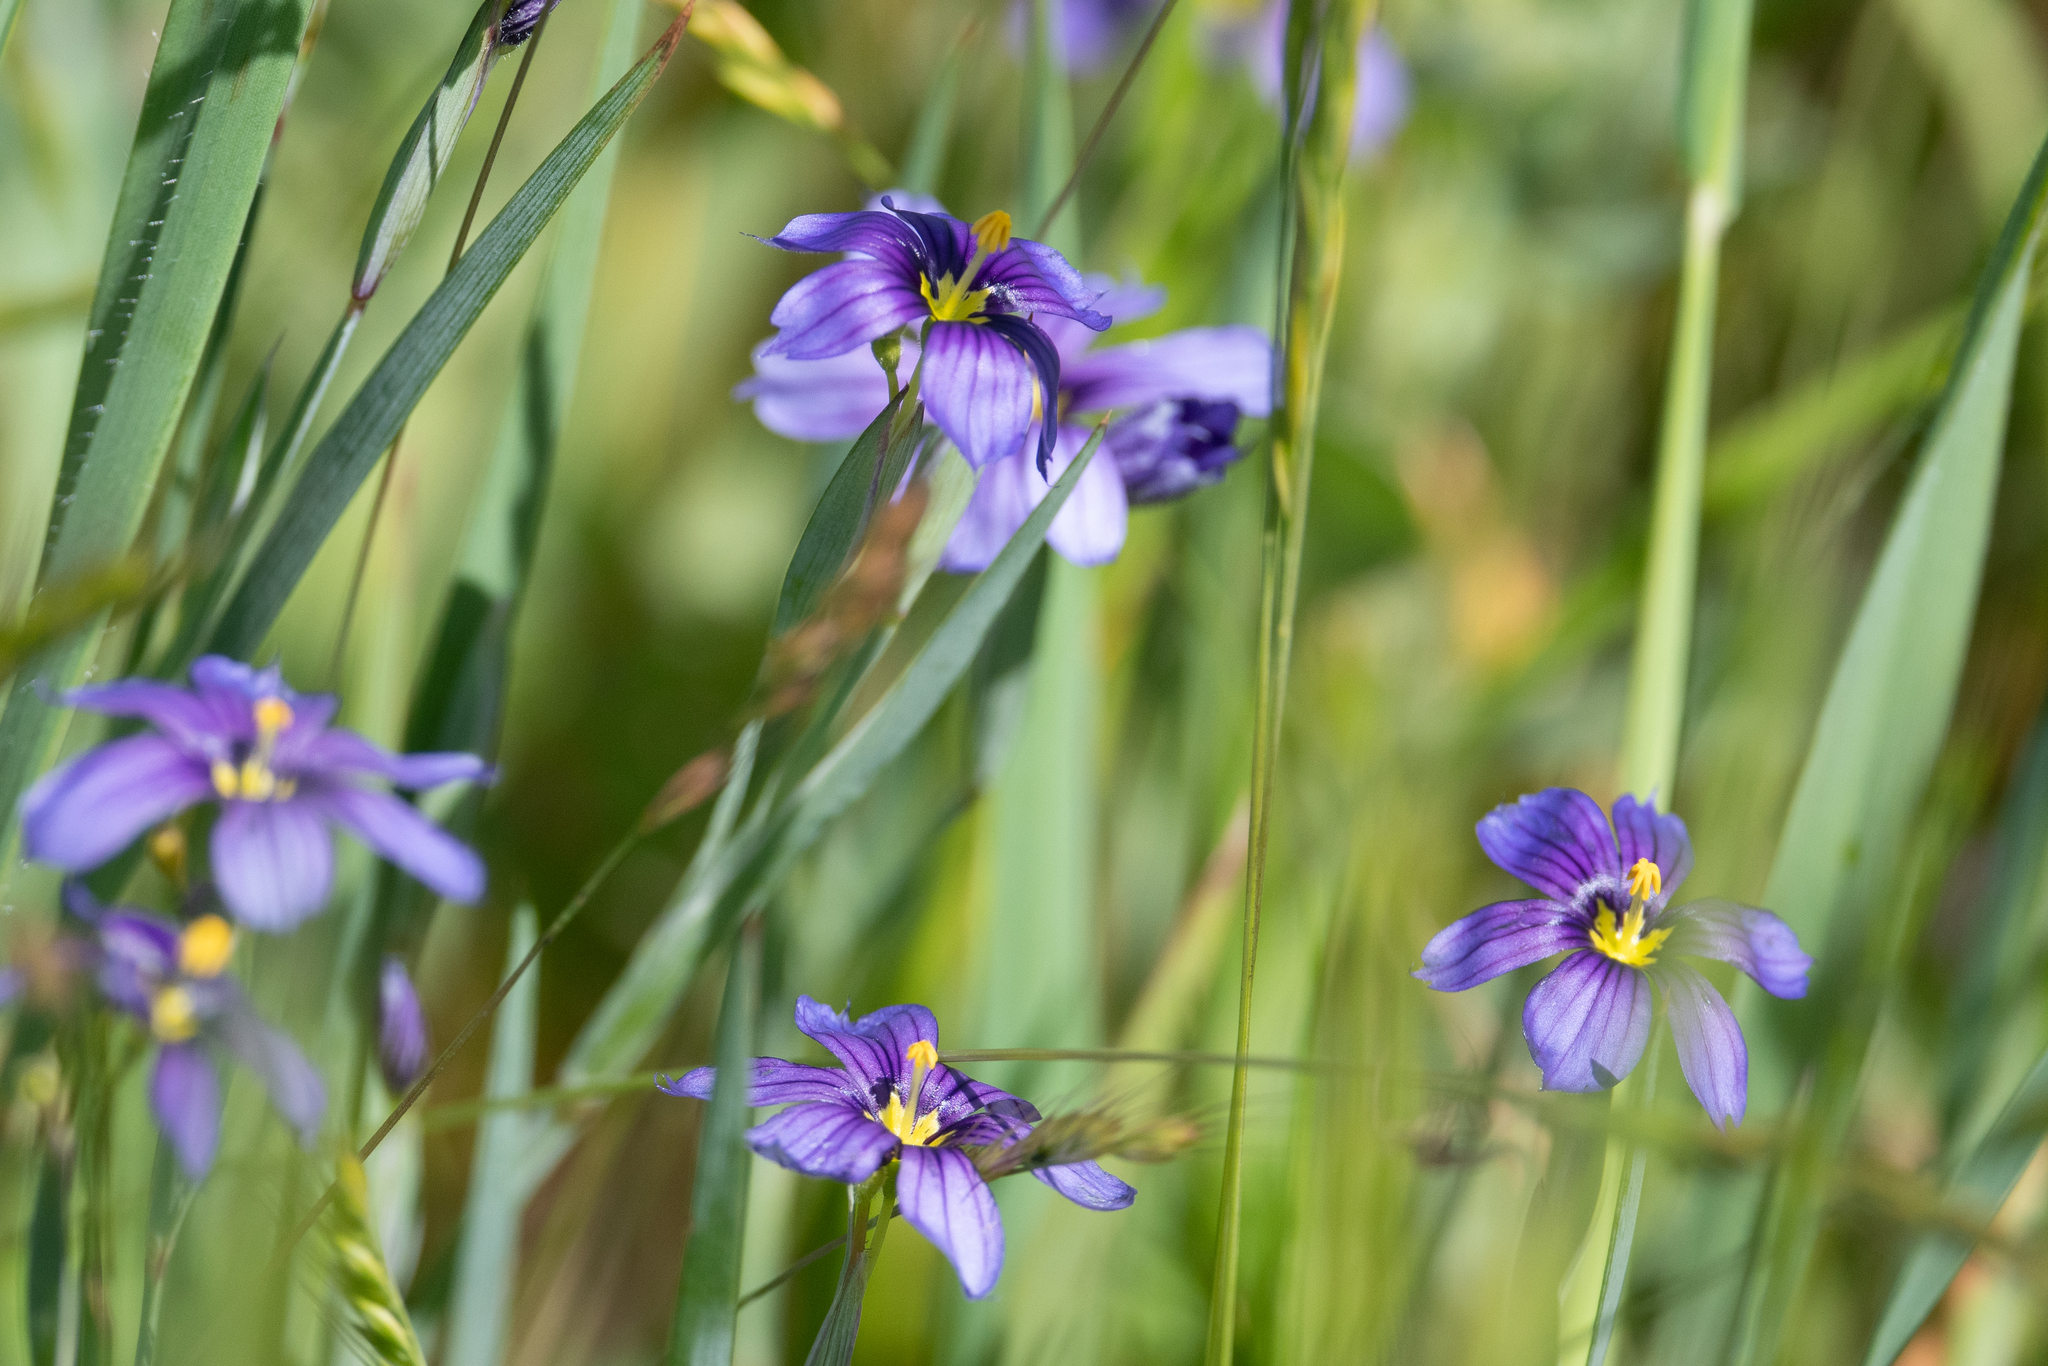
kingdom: Plantae
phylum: Tracheophyta
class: Liliopsida
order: Asparagales
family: Iridaceae
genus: Sisyrinchium
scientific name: Sisyrinchium bellum
